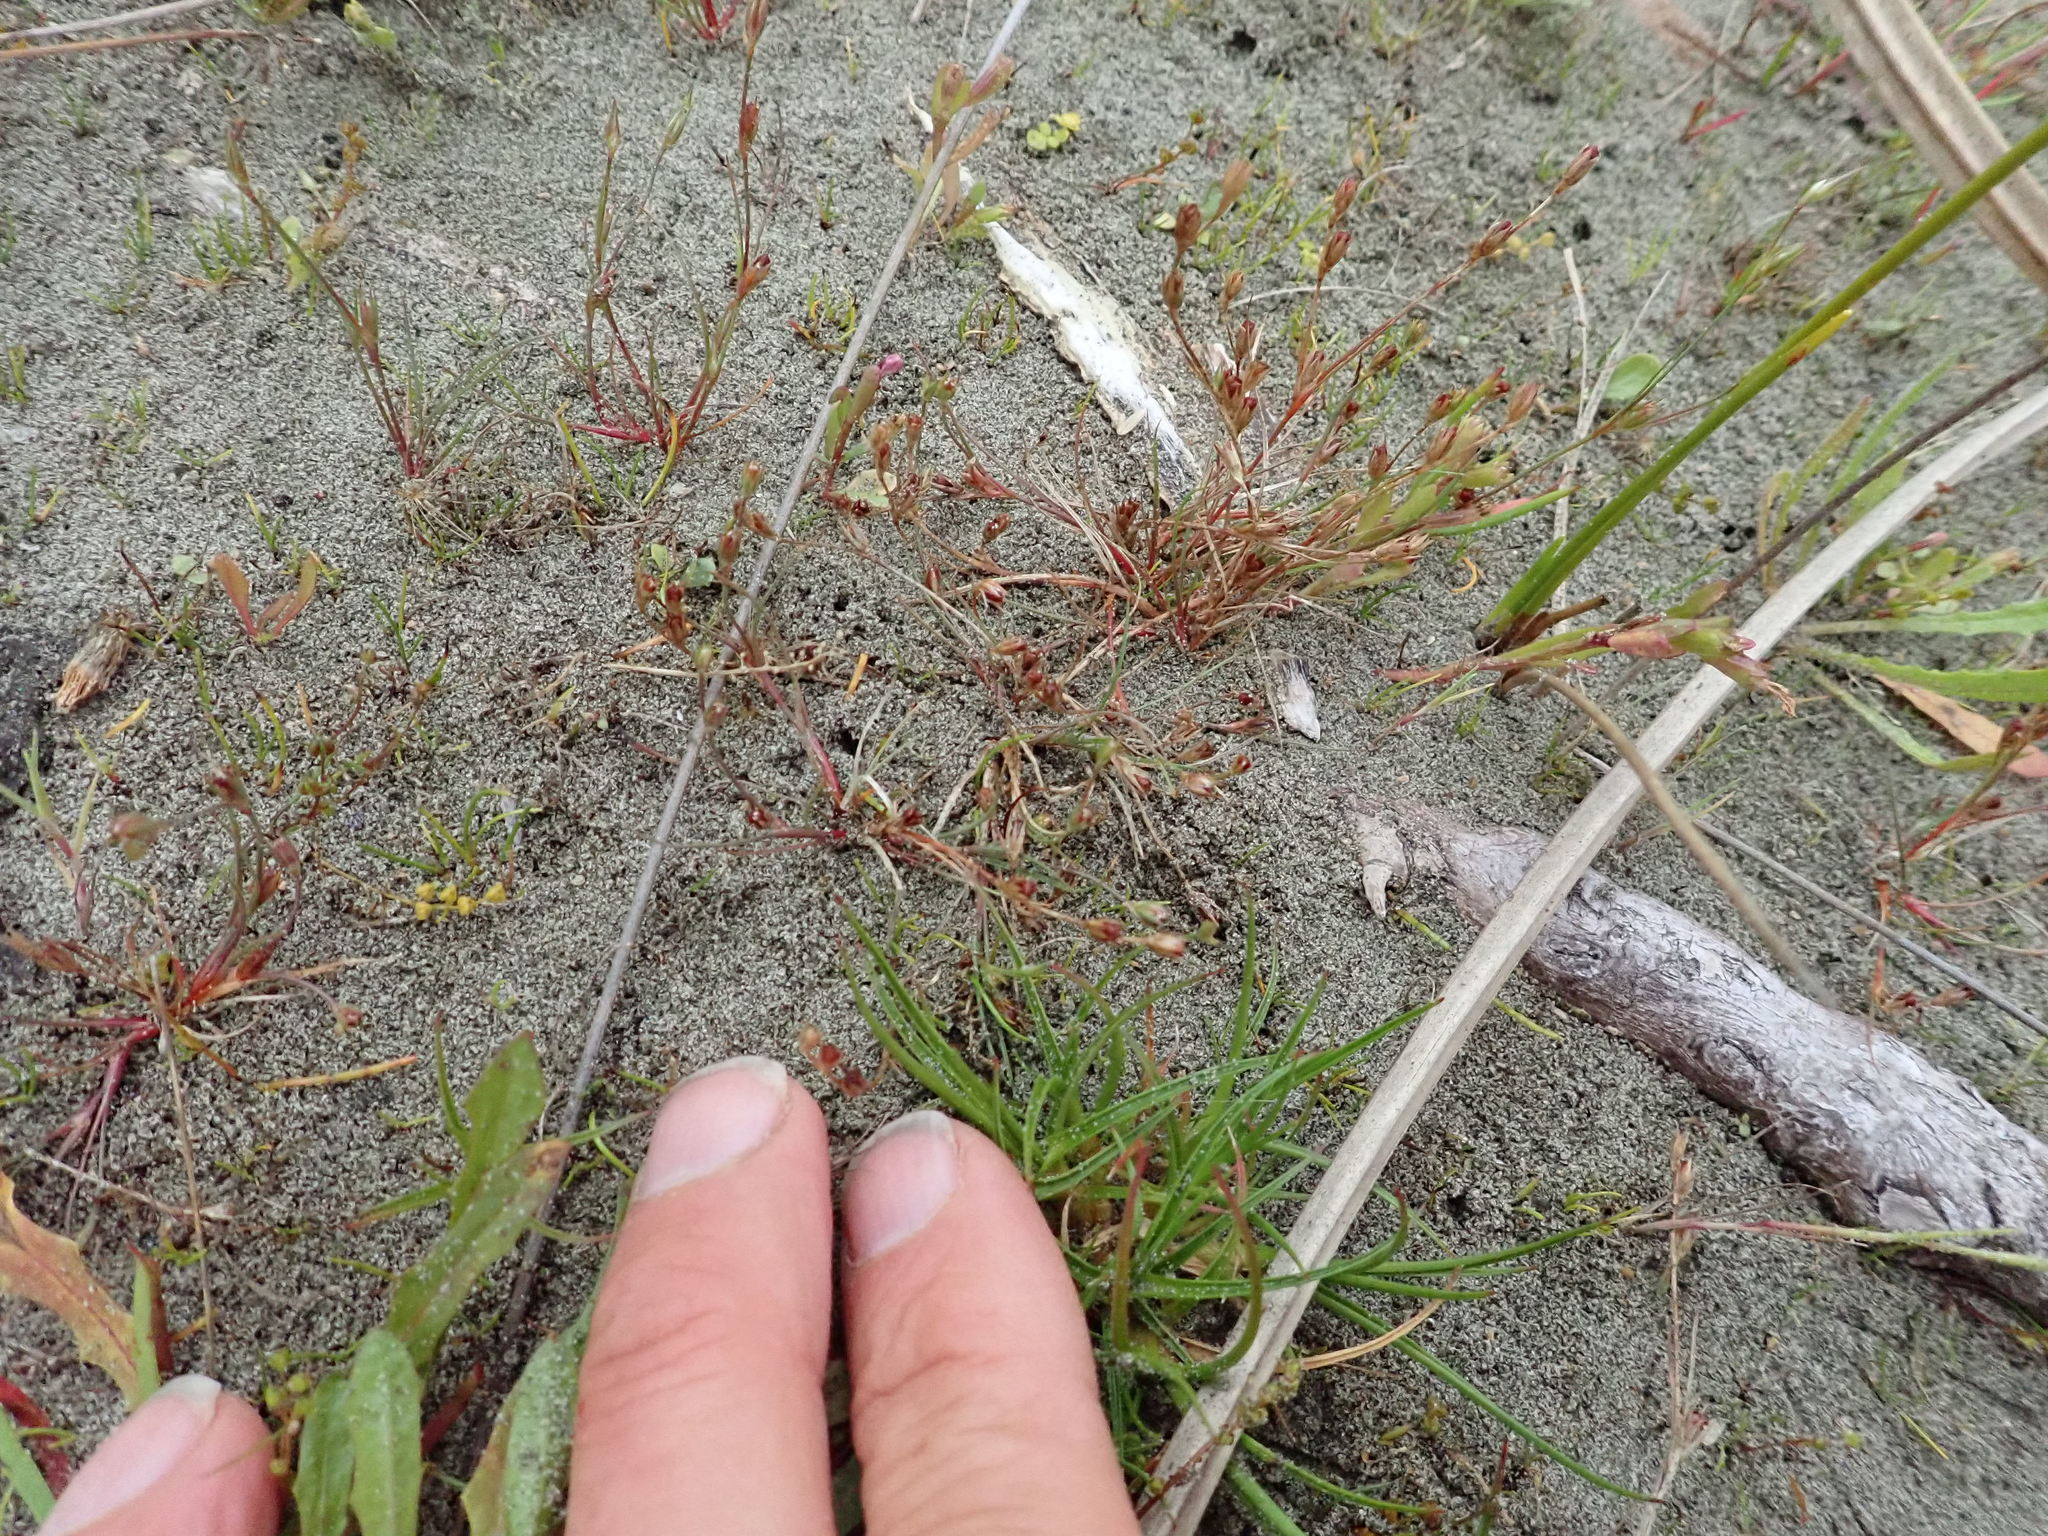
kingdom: Plantae
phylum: Tracheophyta
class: Liliopsida
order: Poales
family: Juncaceae
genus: Juncus
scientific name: Juncus bufonius
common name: Toad rush
